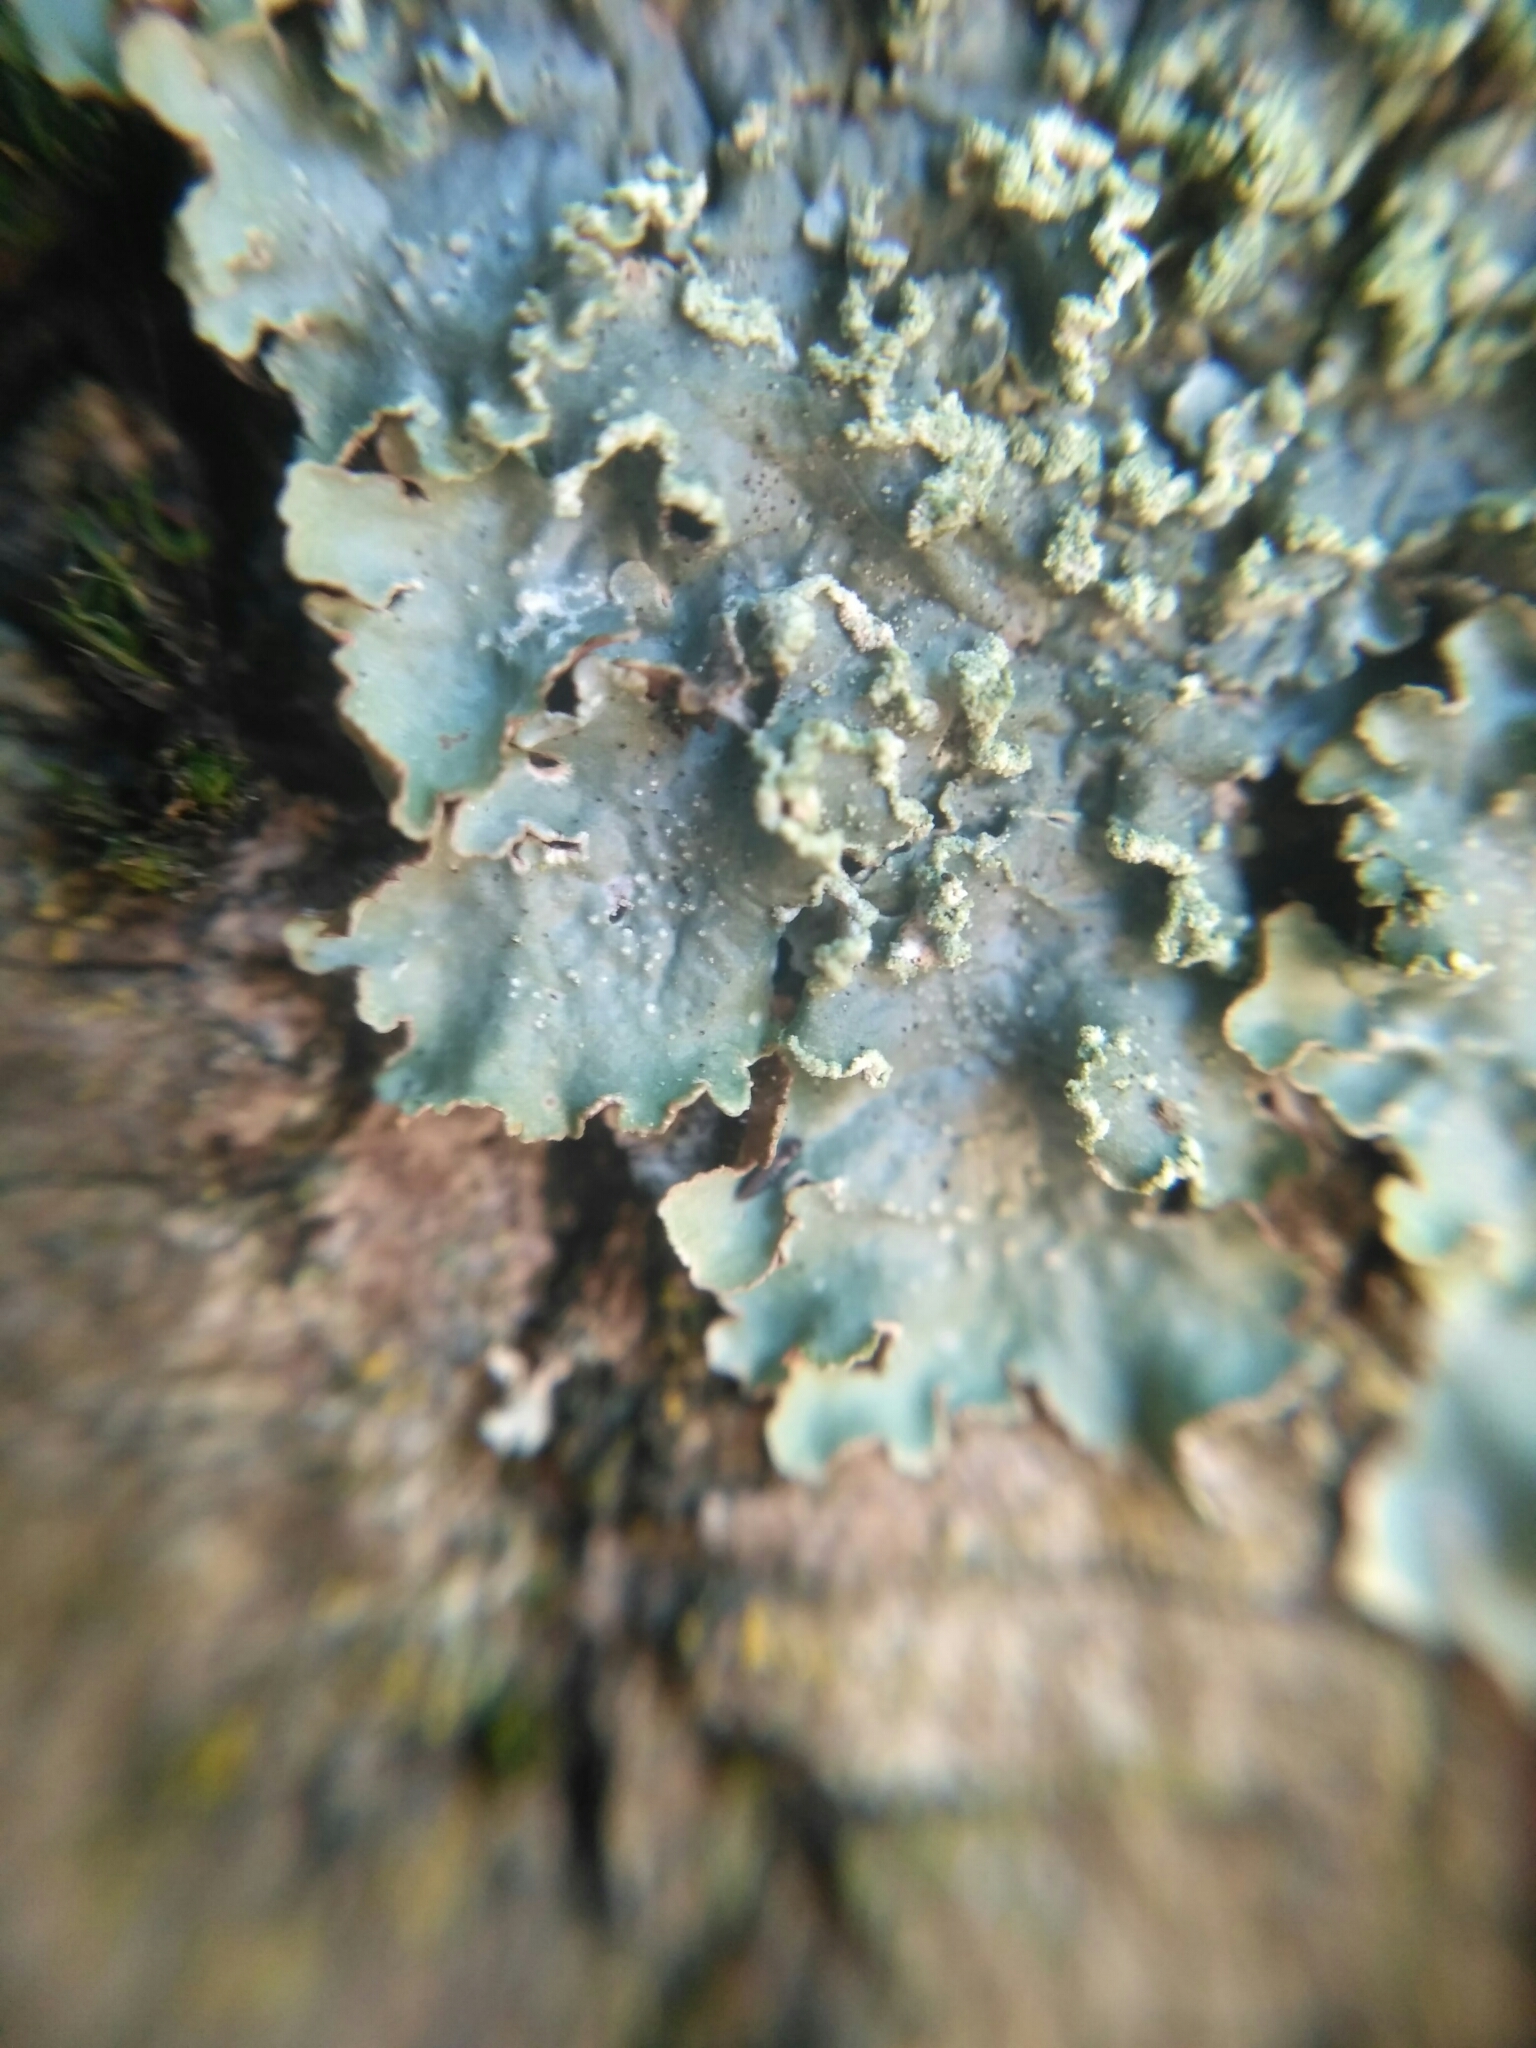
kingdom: Fungi
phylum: Ascomycota
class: Lecanoromycetes
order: Lecanorales
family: Parmeliaceae
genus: Punctelia
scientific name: Punctelia subrudecta
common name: Powdered speckled shield lichen
